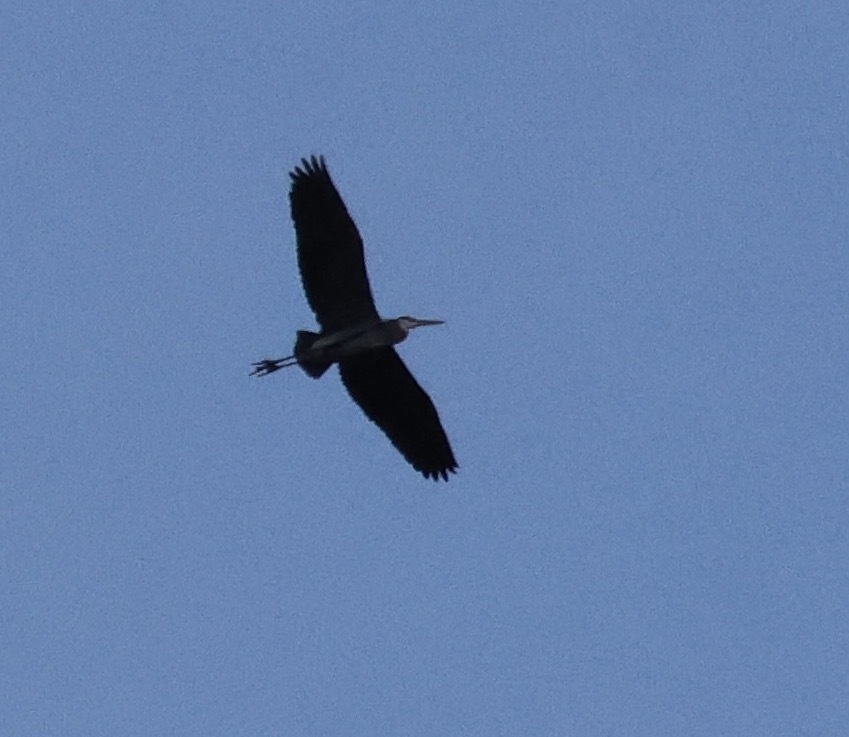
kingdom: Animalia
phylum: Chordata
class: Aves
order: Pelecaniformes
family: Ardeidae
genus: Ardea
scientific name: Ardea herodias
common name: Great blue heron
